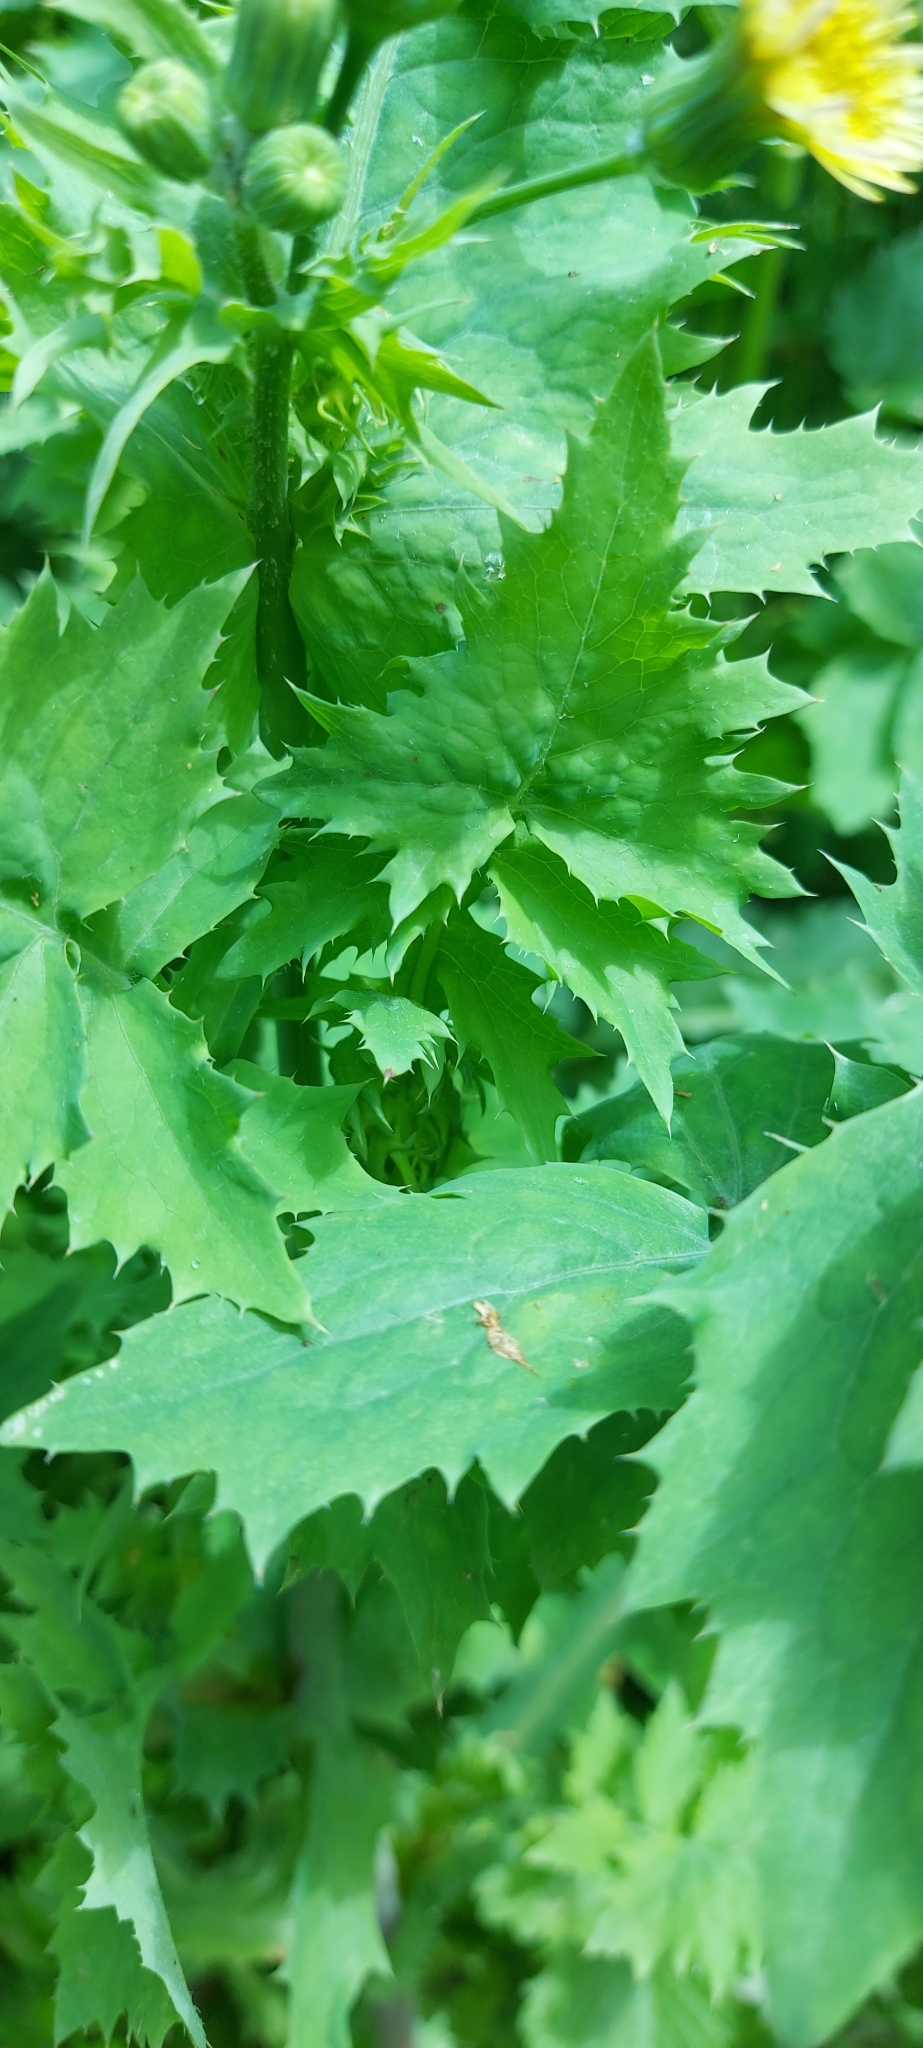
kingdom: Plantae
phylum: Tracheophyta
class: Magnoliopsida
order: Asterales
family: Asteraceae
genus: Sonchus
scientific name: Sonchus oleraceus
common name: Common sowthistle
